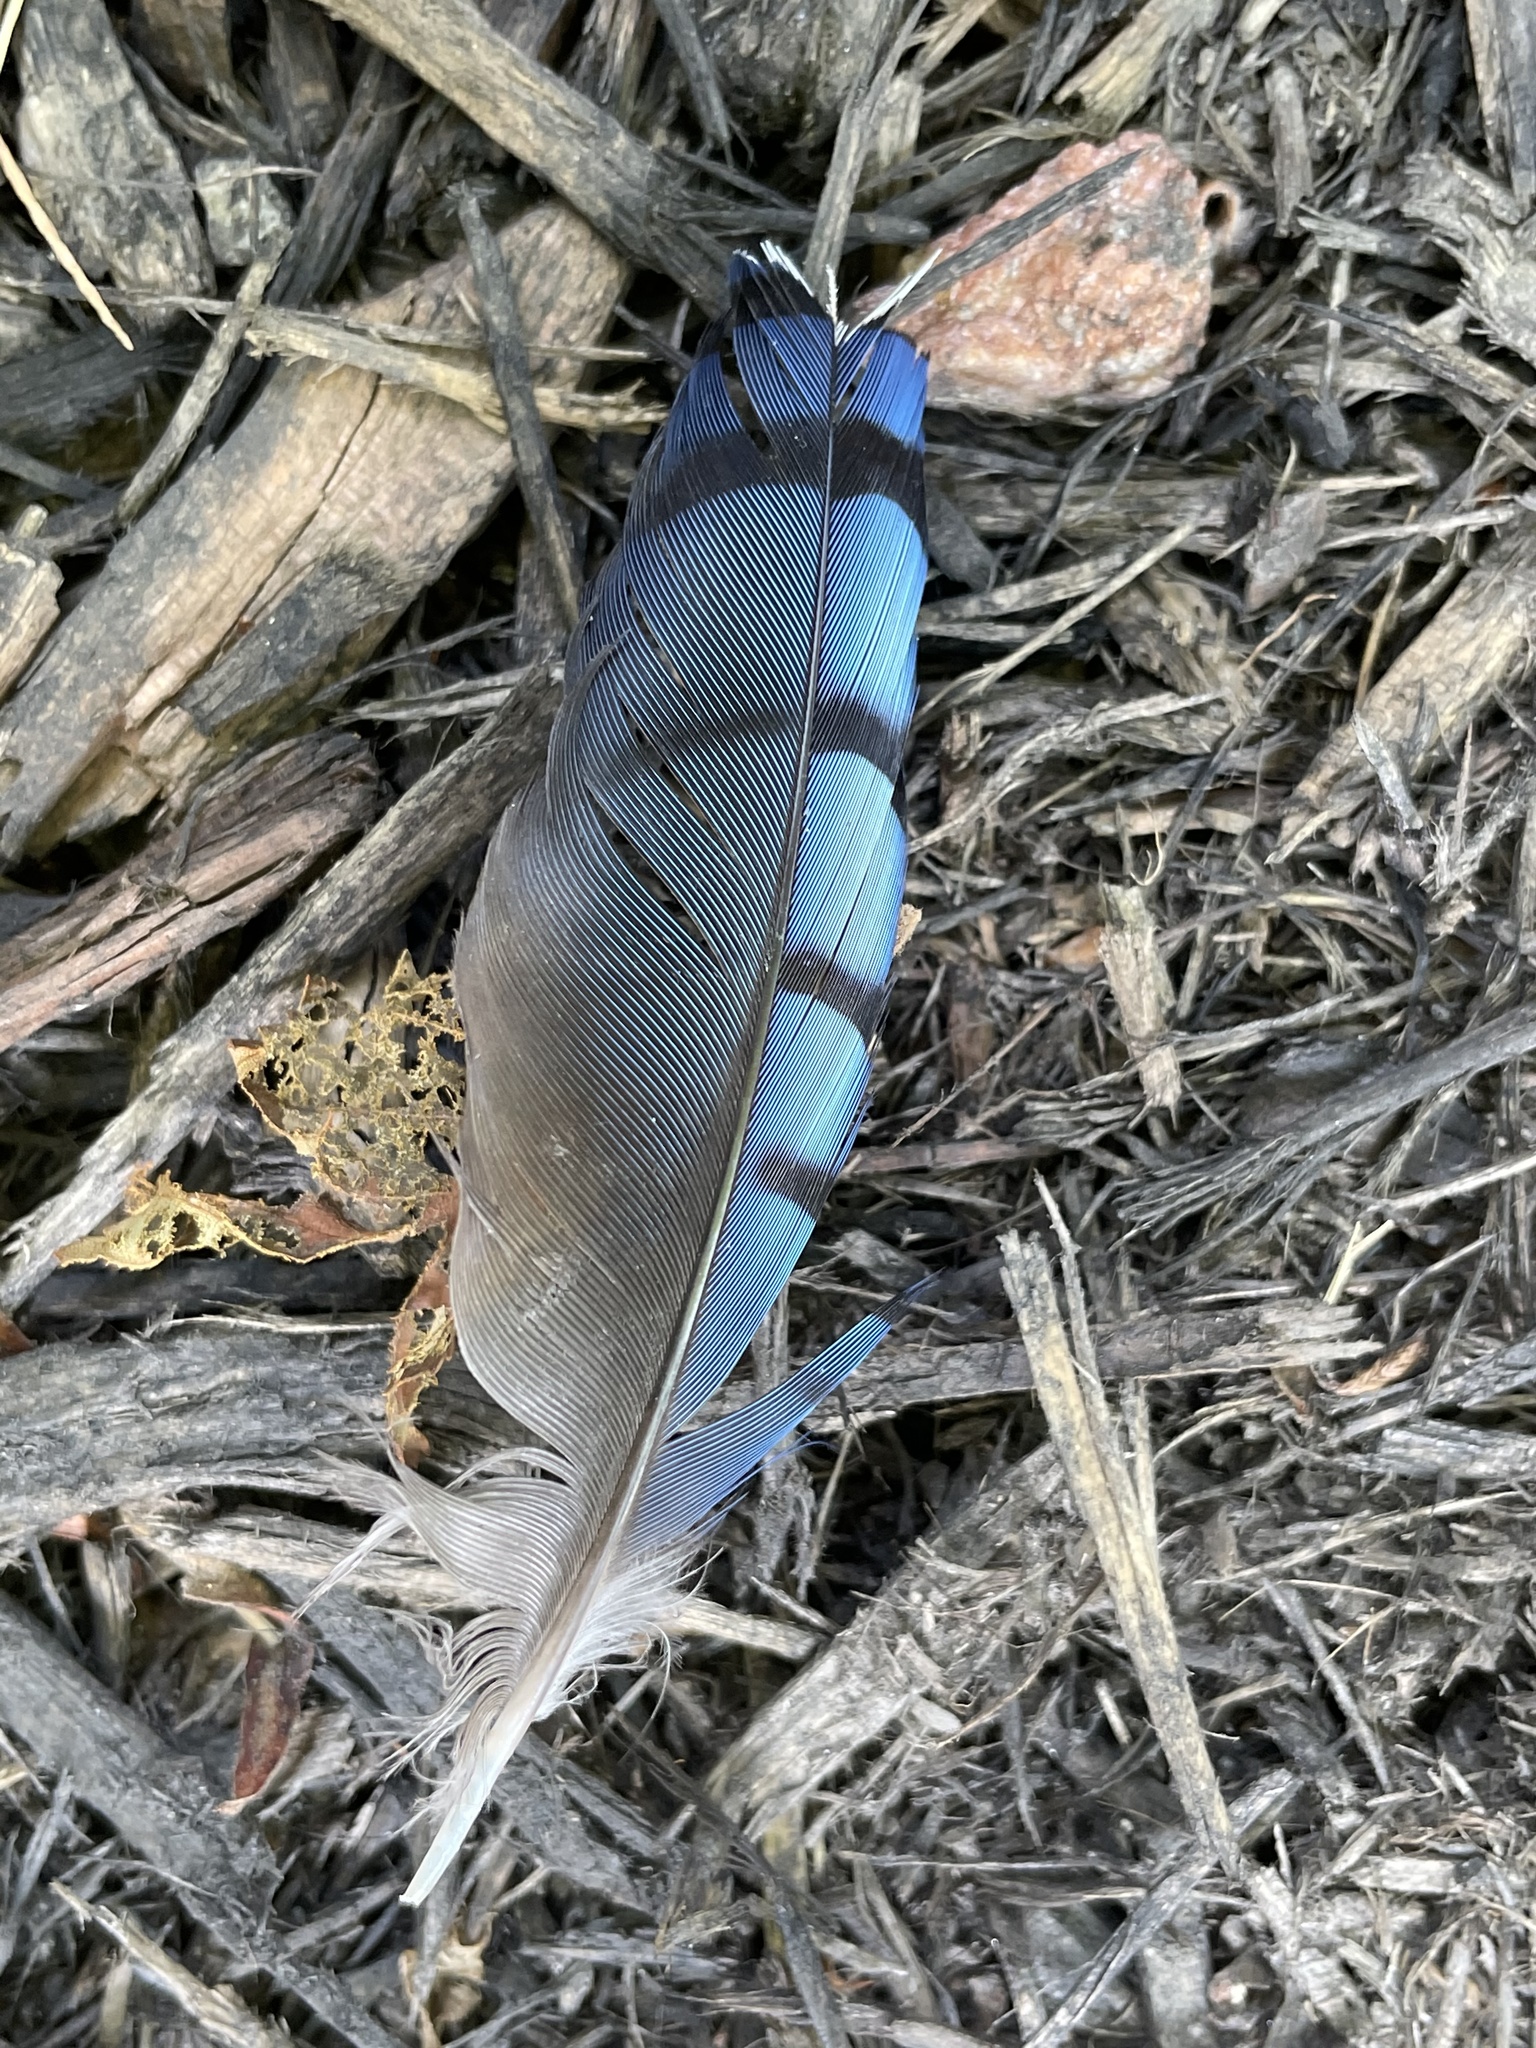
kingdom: Animalia
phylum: Chordata
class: Aves
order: Passeriformes
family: Corvidae
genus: Cyanocitta
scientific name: Cyanocitta cristata
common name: Blue jay
